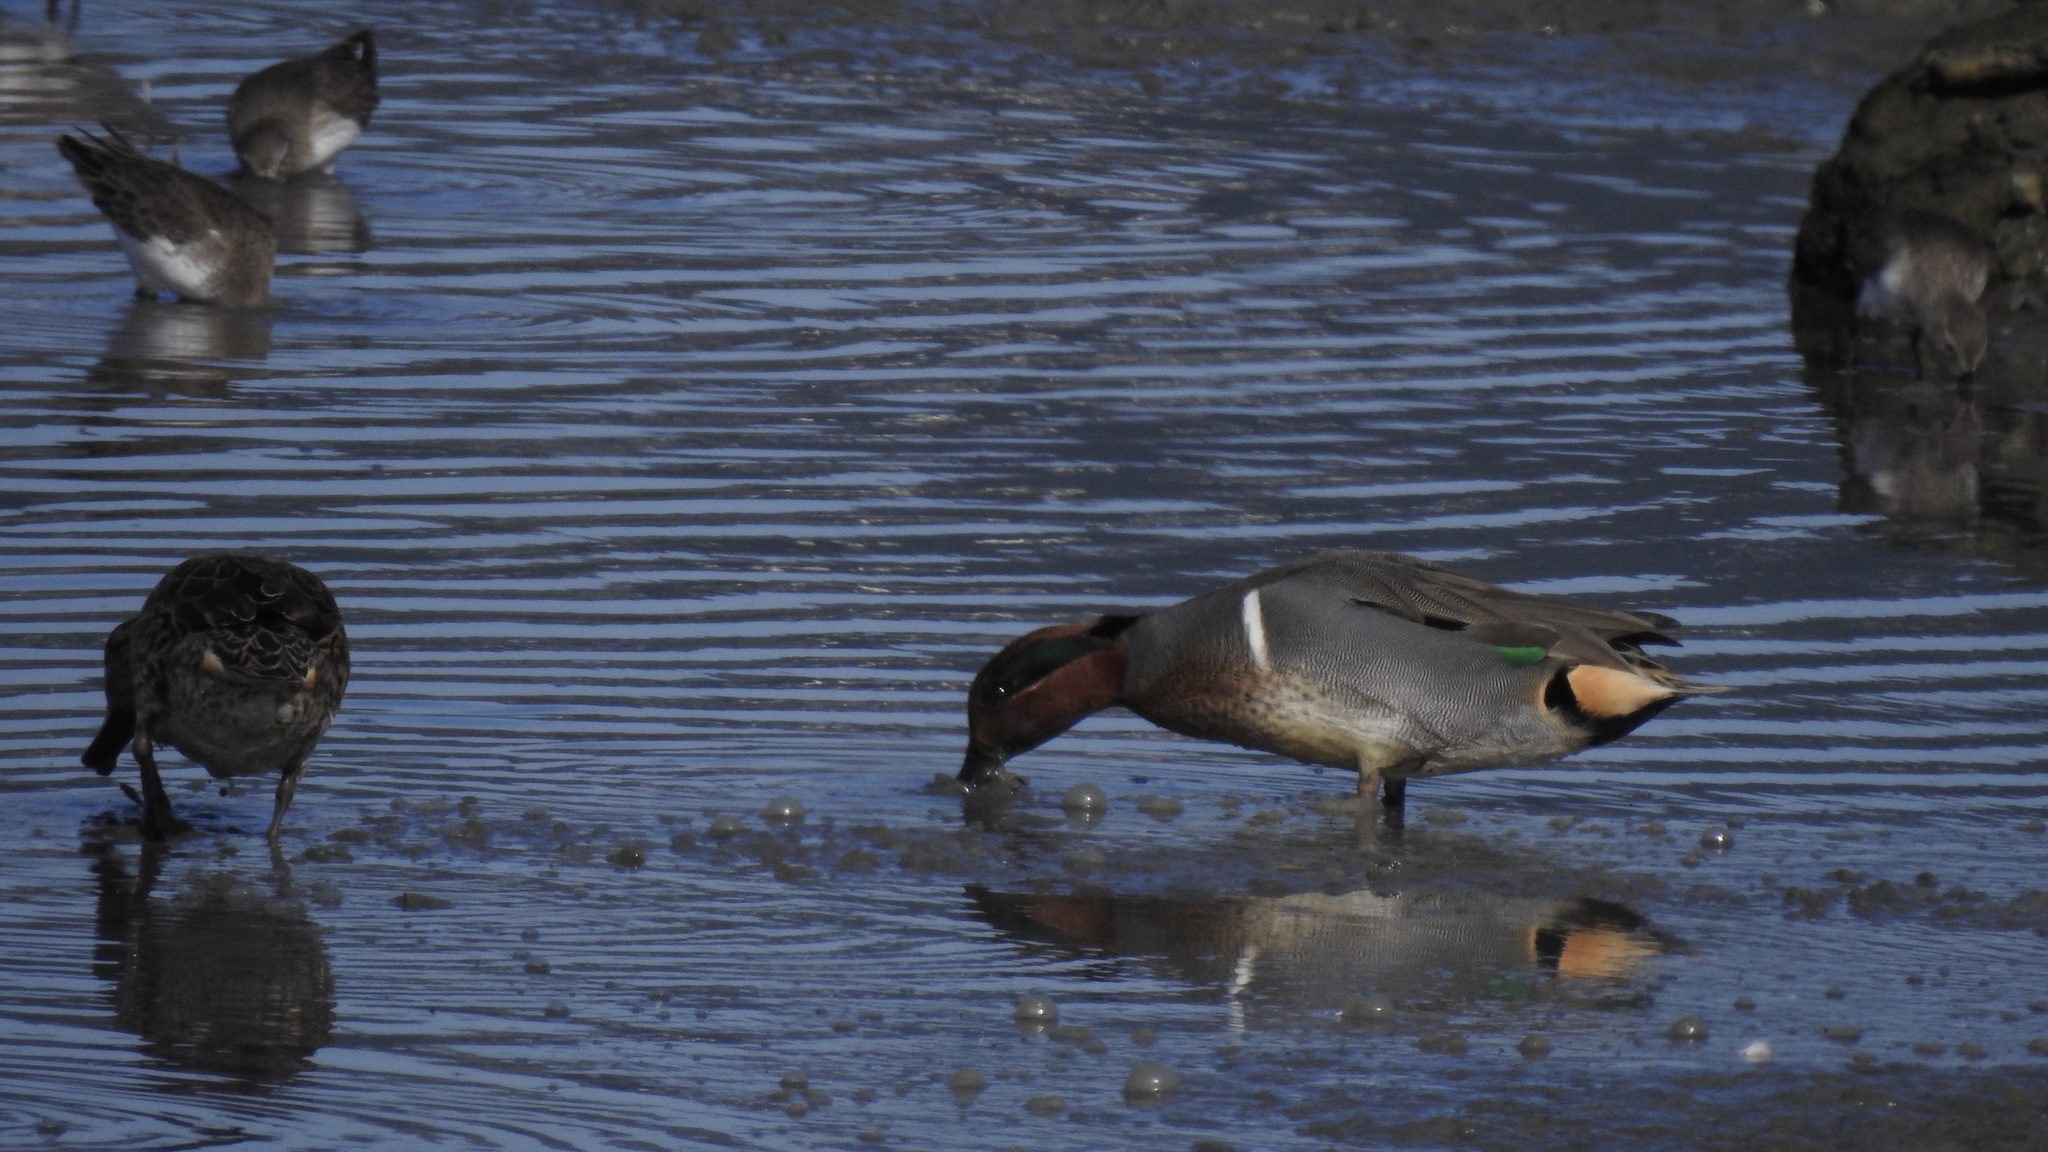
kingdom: Animalia
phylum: Chordata
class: Aves
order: Anseriformes
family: Anatidae
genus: Anas
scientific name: Anas crecca
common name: Eurasian teal
